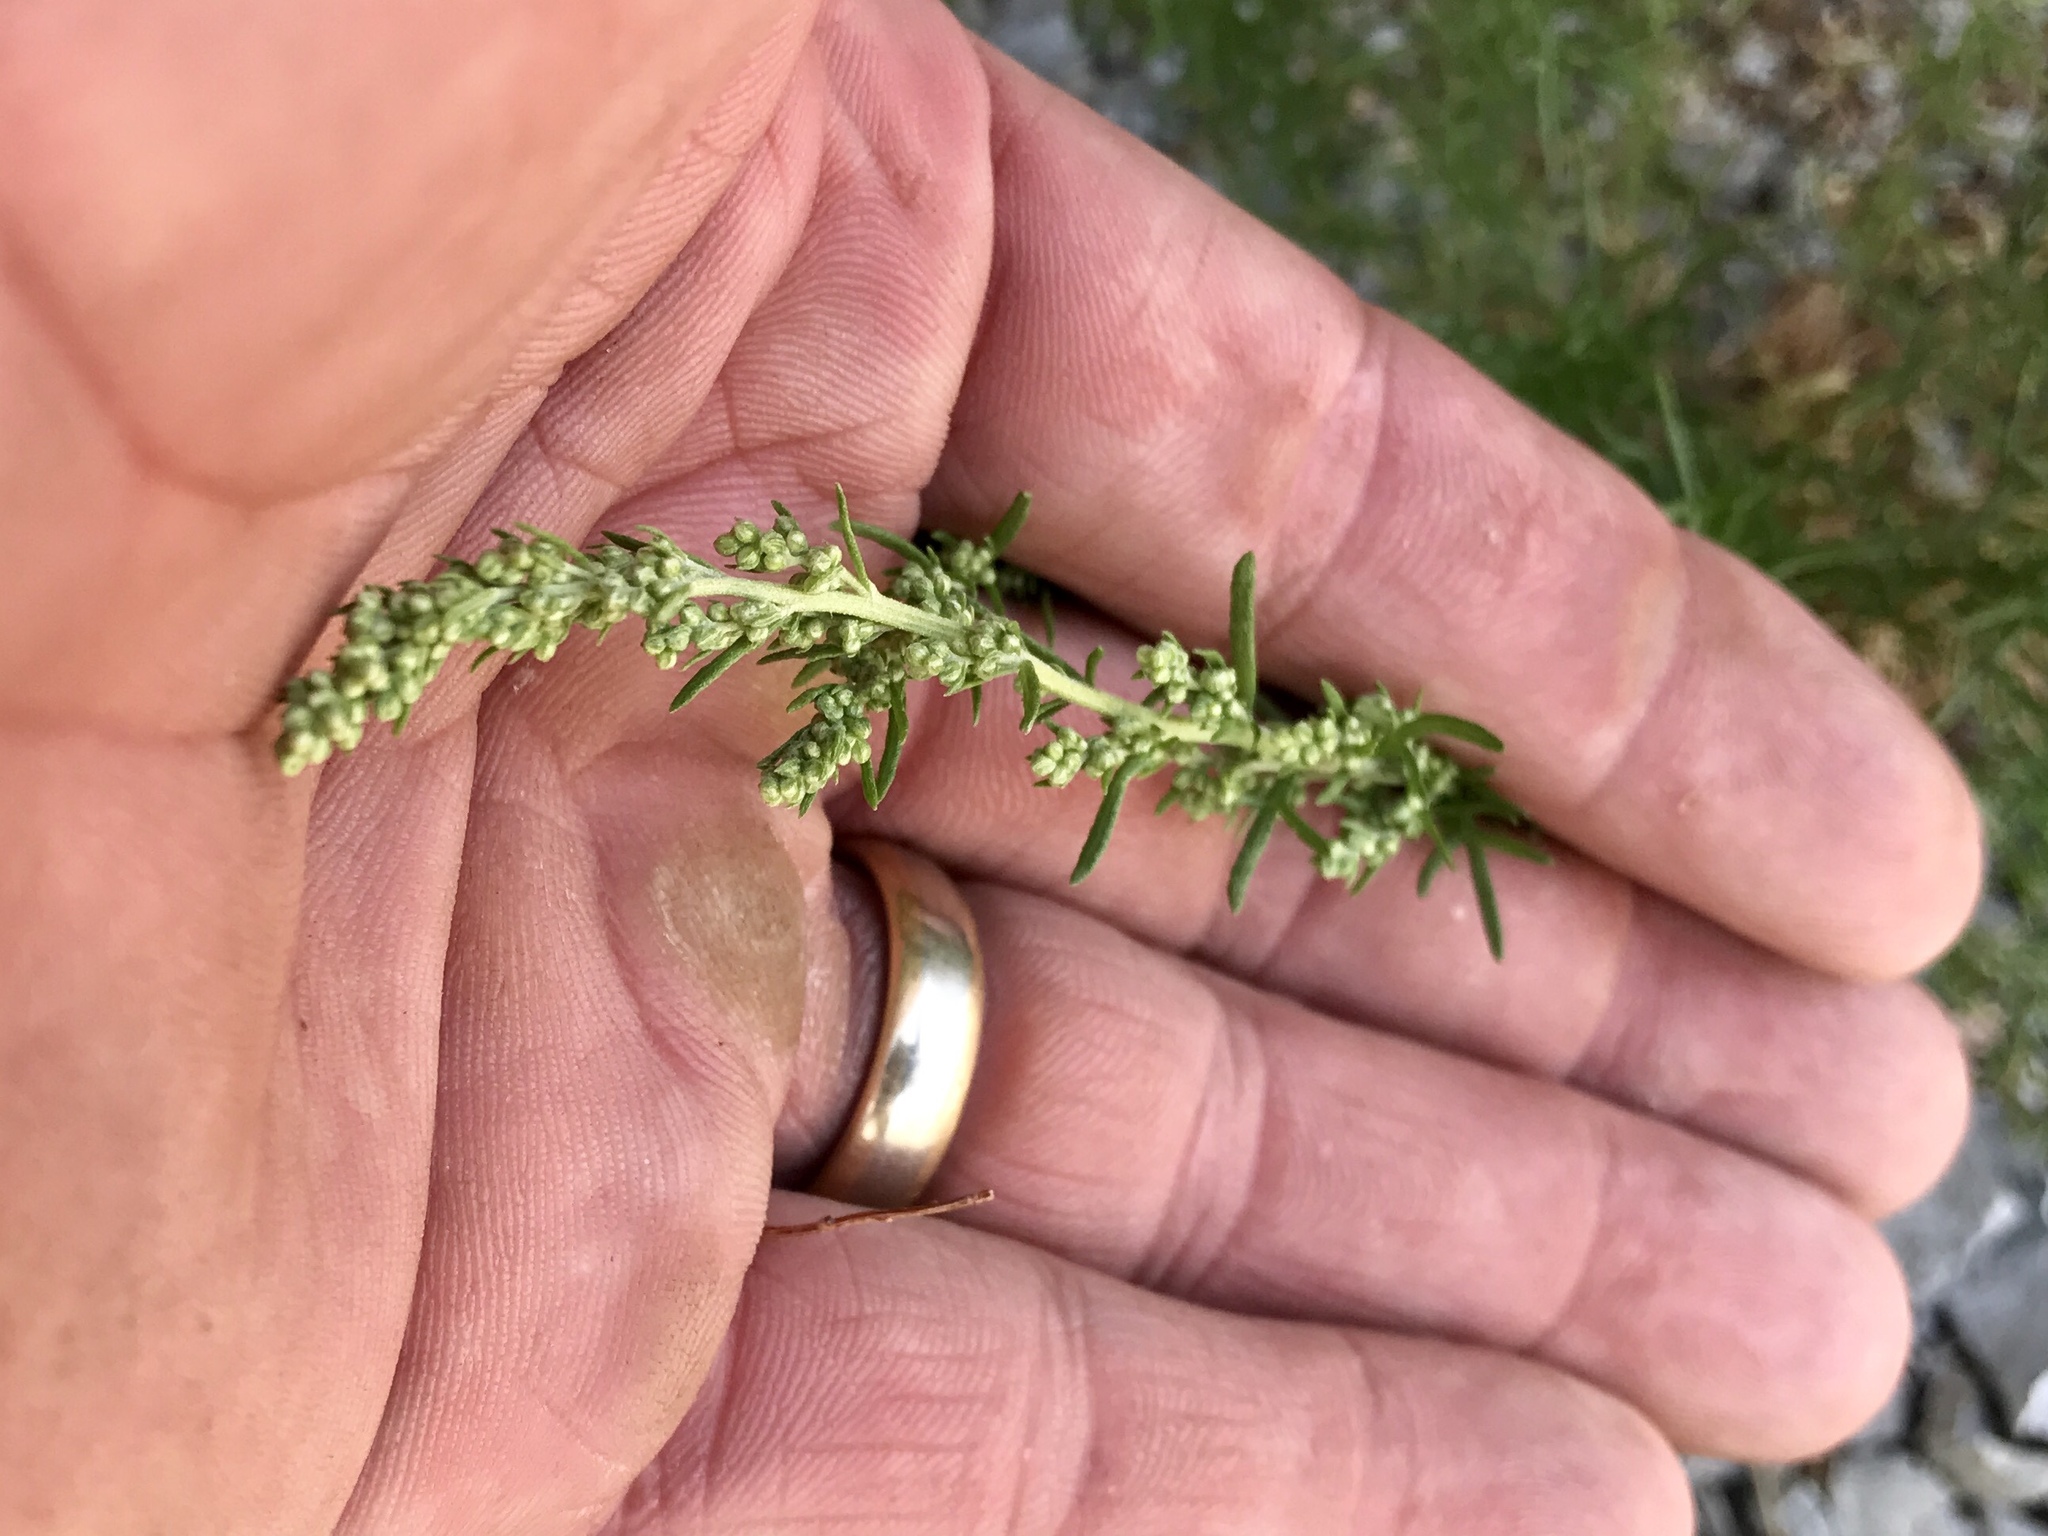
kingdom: Plantae
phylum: Tracheophyta
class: Magnoliopsida
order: Asterales
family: Asteraceae
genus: Artemisia
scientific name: Artemisia carruthii
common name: Carruth wormwood
